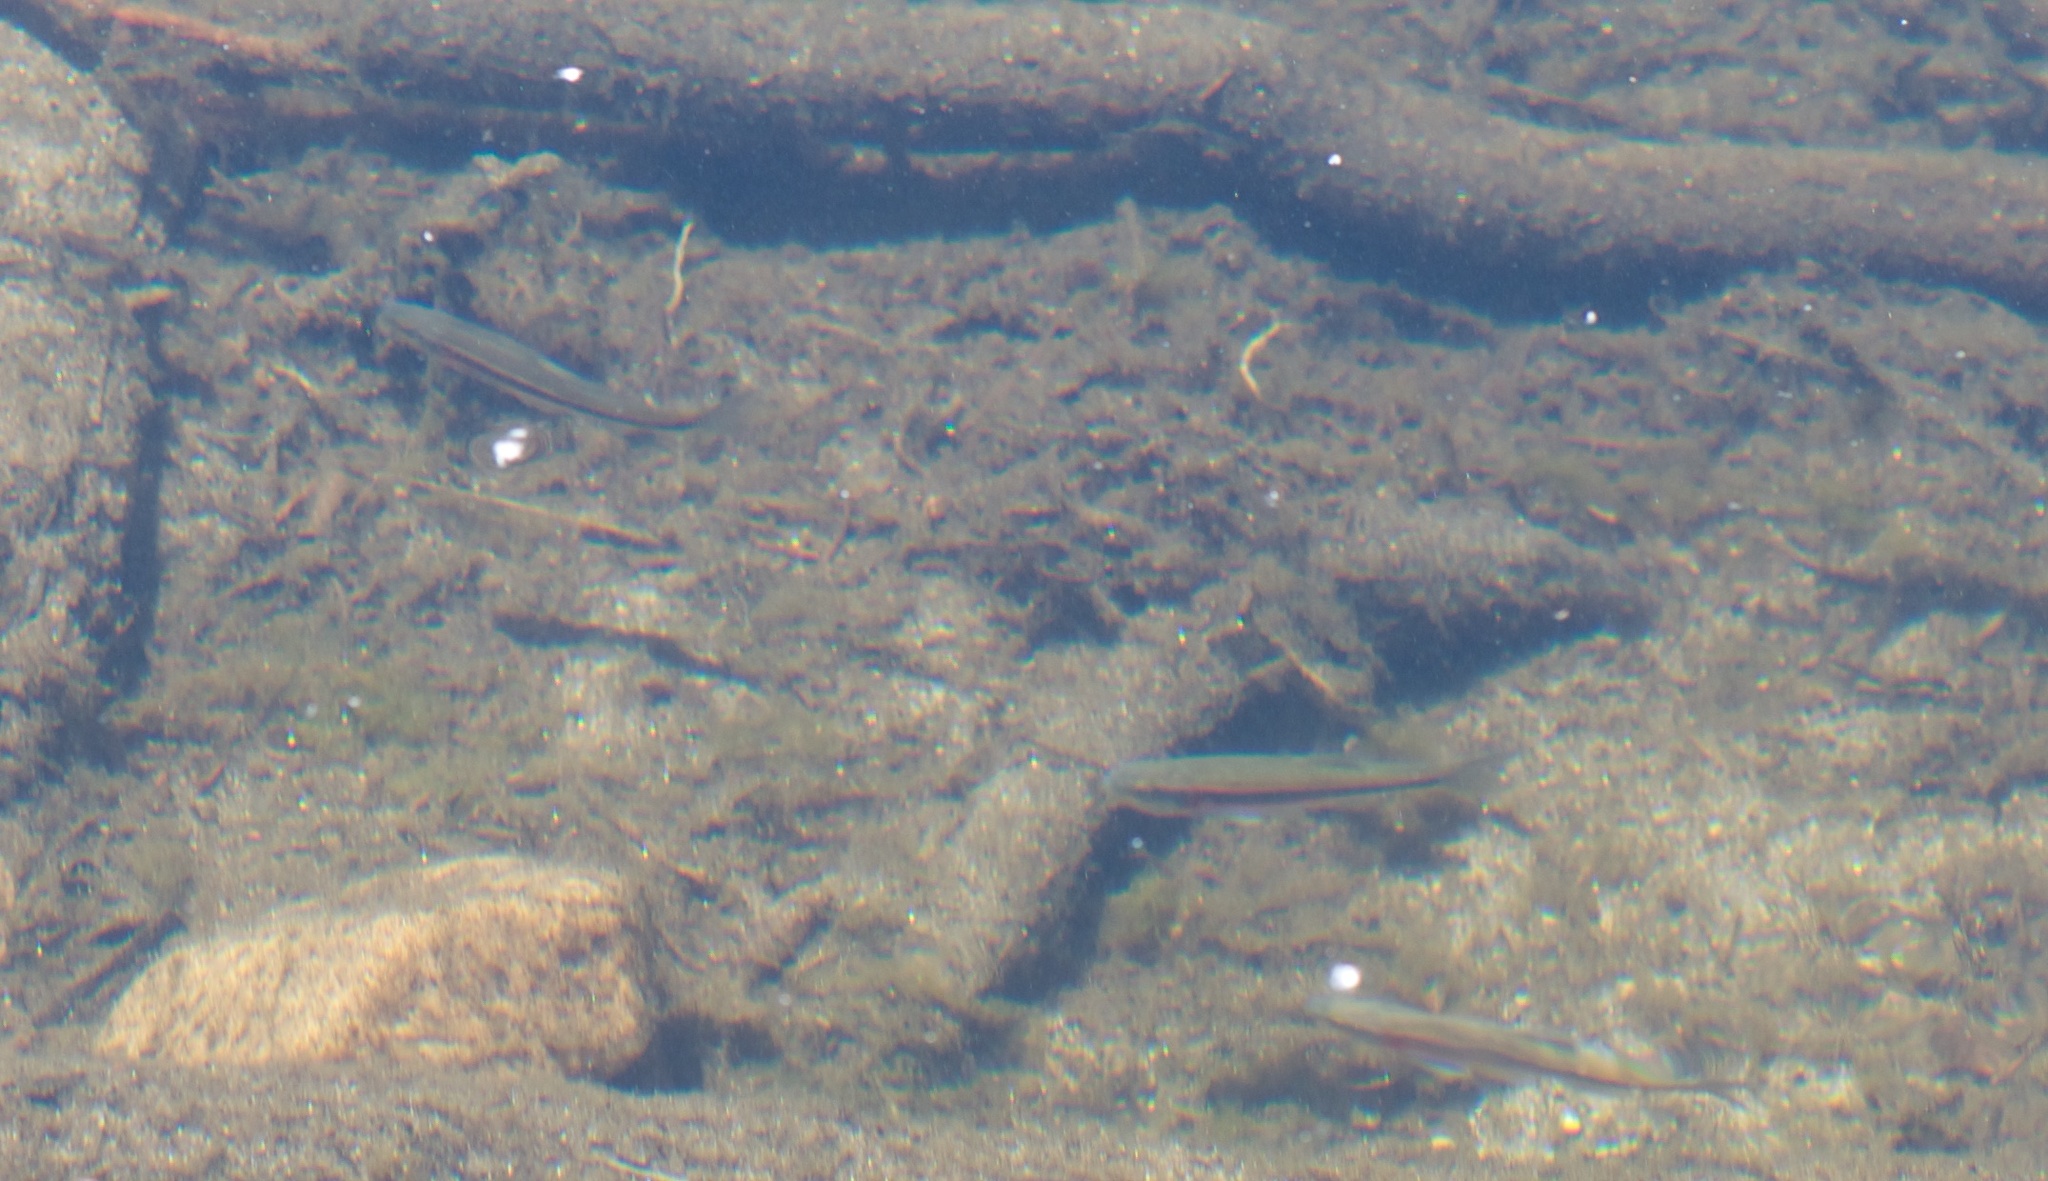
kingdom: Animalia
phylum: Chordata
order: Cypriniformes
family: Cyprinidae
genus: Richardsonius
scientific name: Richardsonius egregius
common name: Lahontan redside
